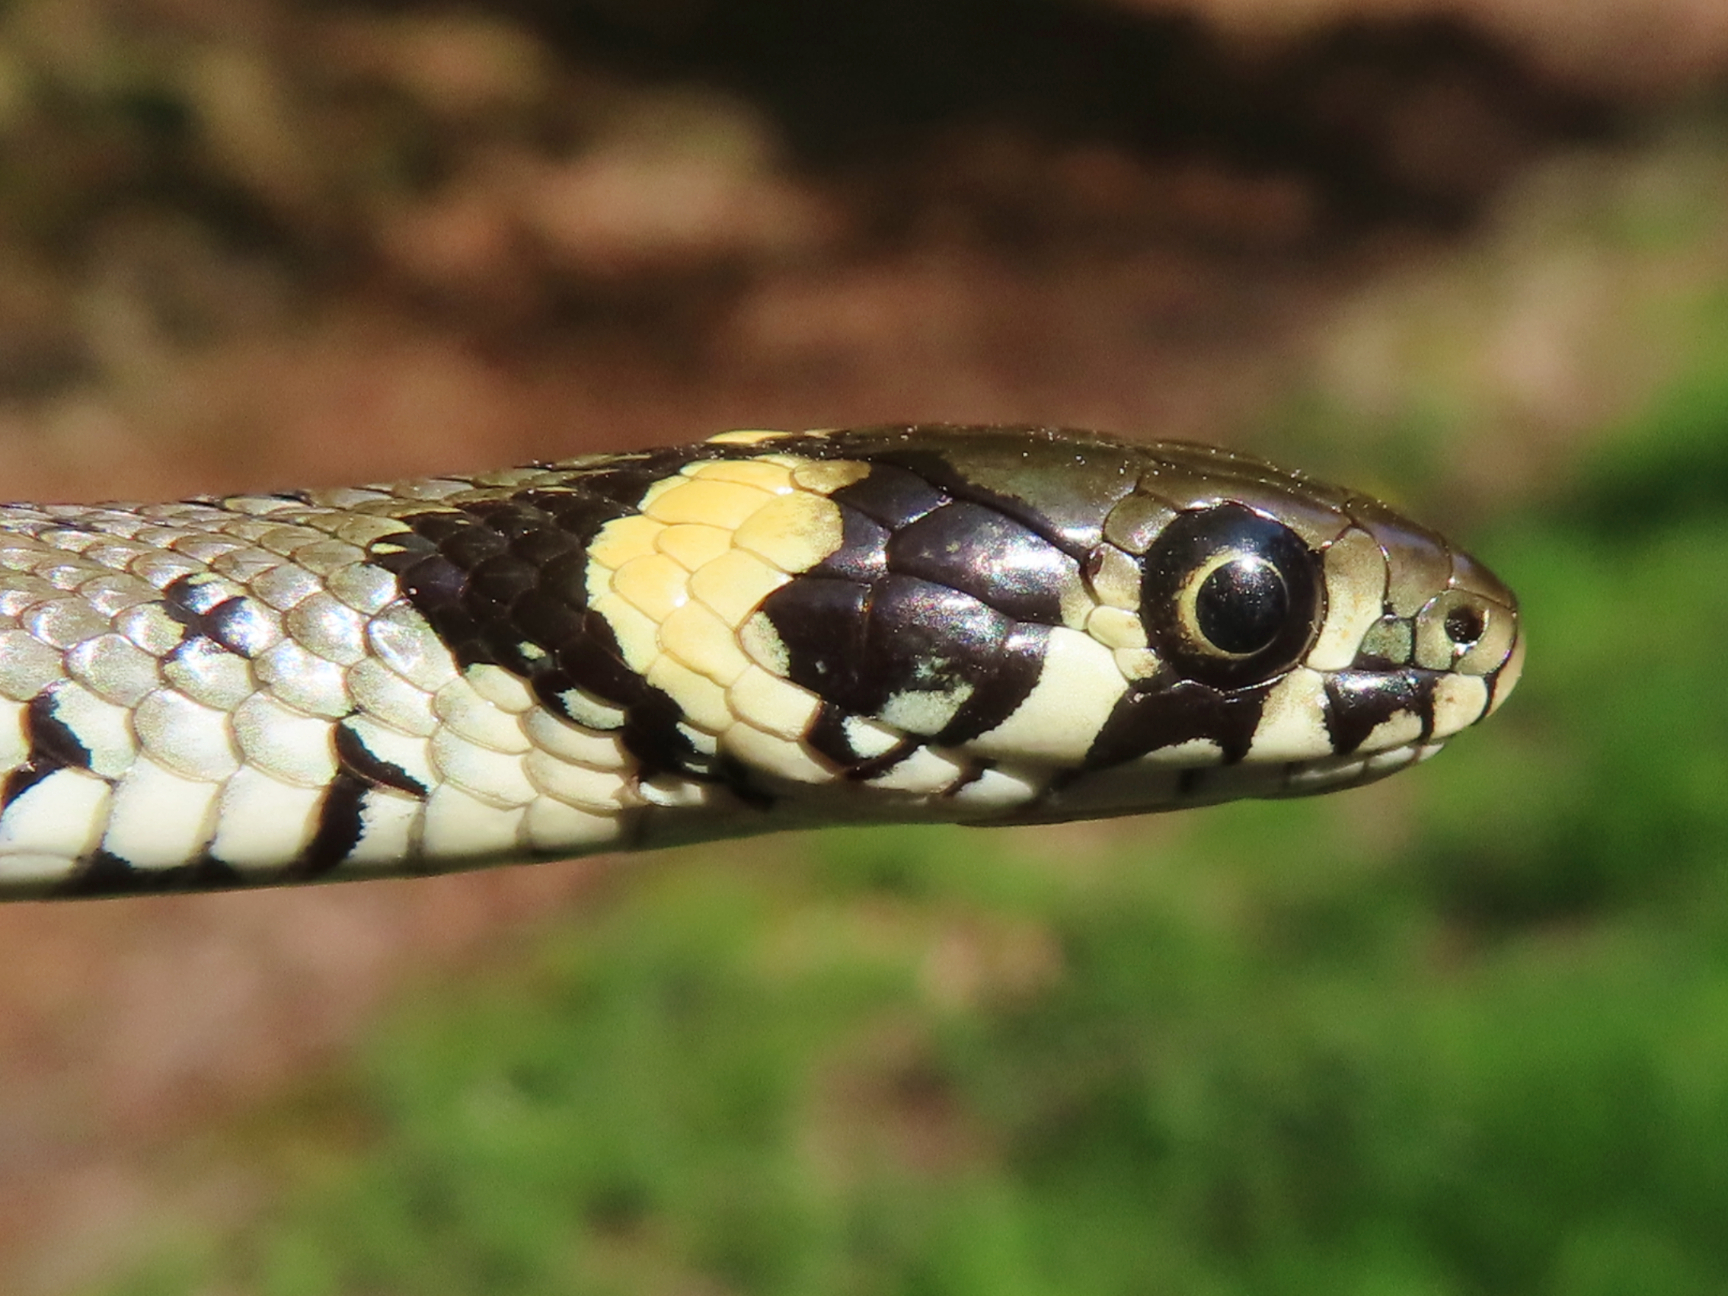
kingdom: Animalia
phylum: Chordata
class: Squamata
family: Colubridae
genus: Natrix
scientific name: Natrix natrix
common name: Grass snake
